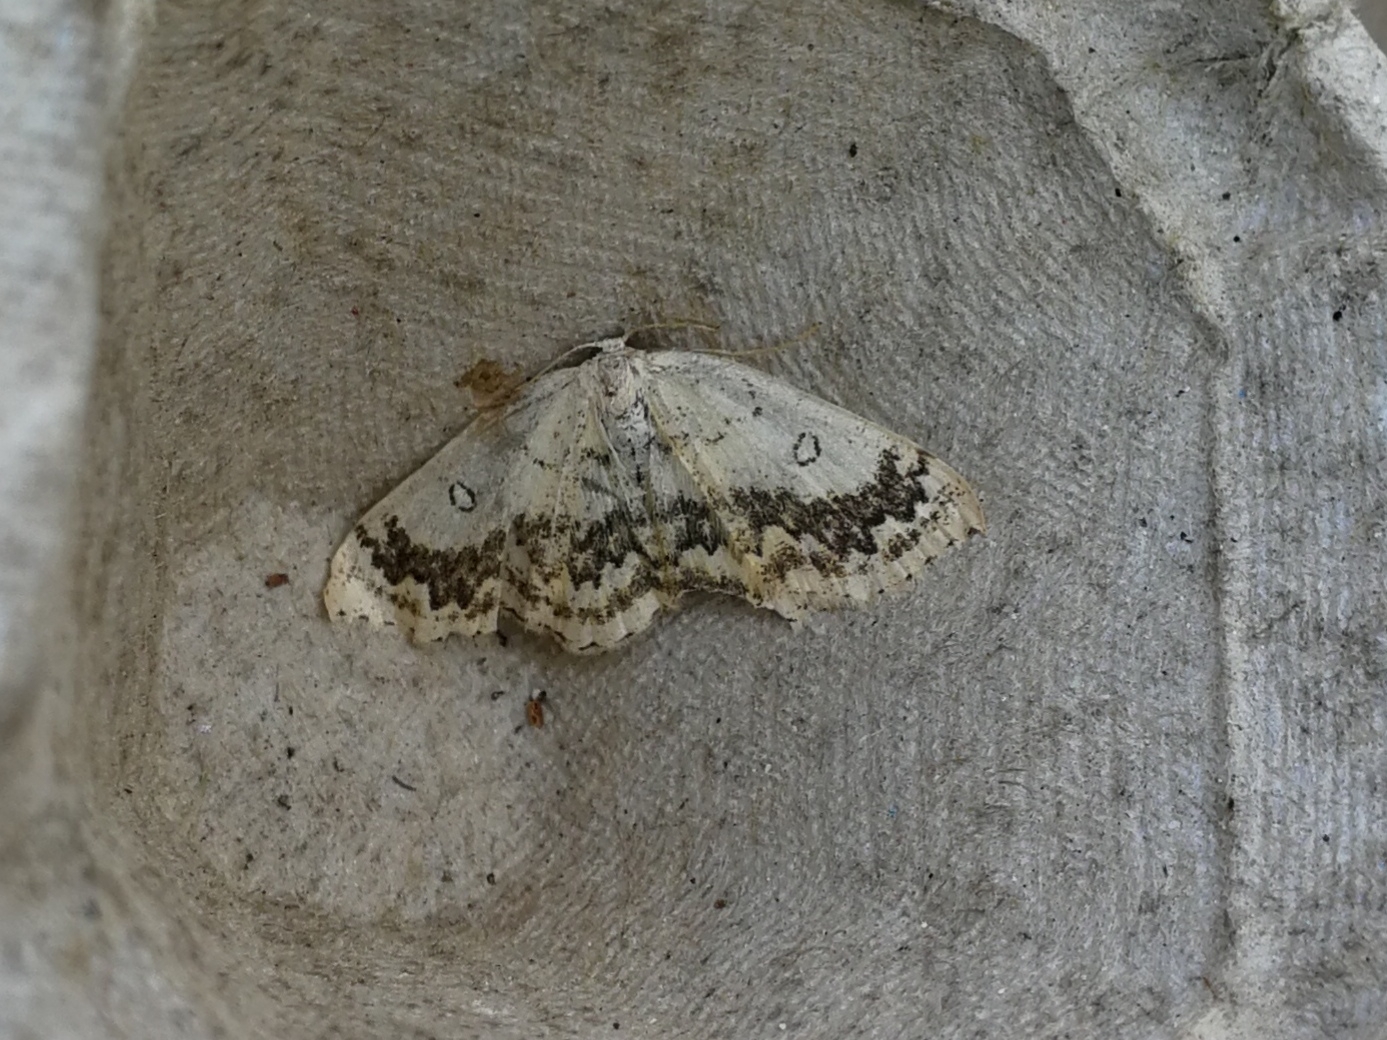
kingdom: Animalia
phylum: Arthropoda
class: Insecta
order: Lepidoptera
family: Geometridae
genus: Cyclophora
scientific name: Cyclophora annularia
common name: Mocha
